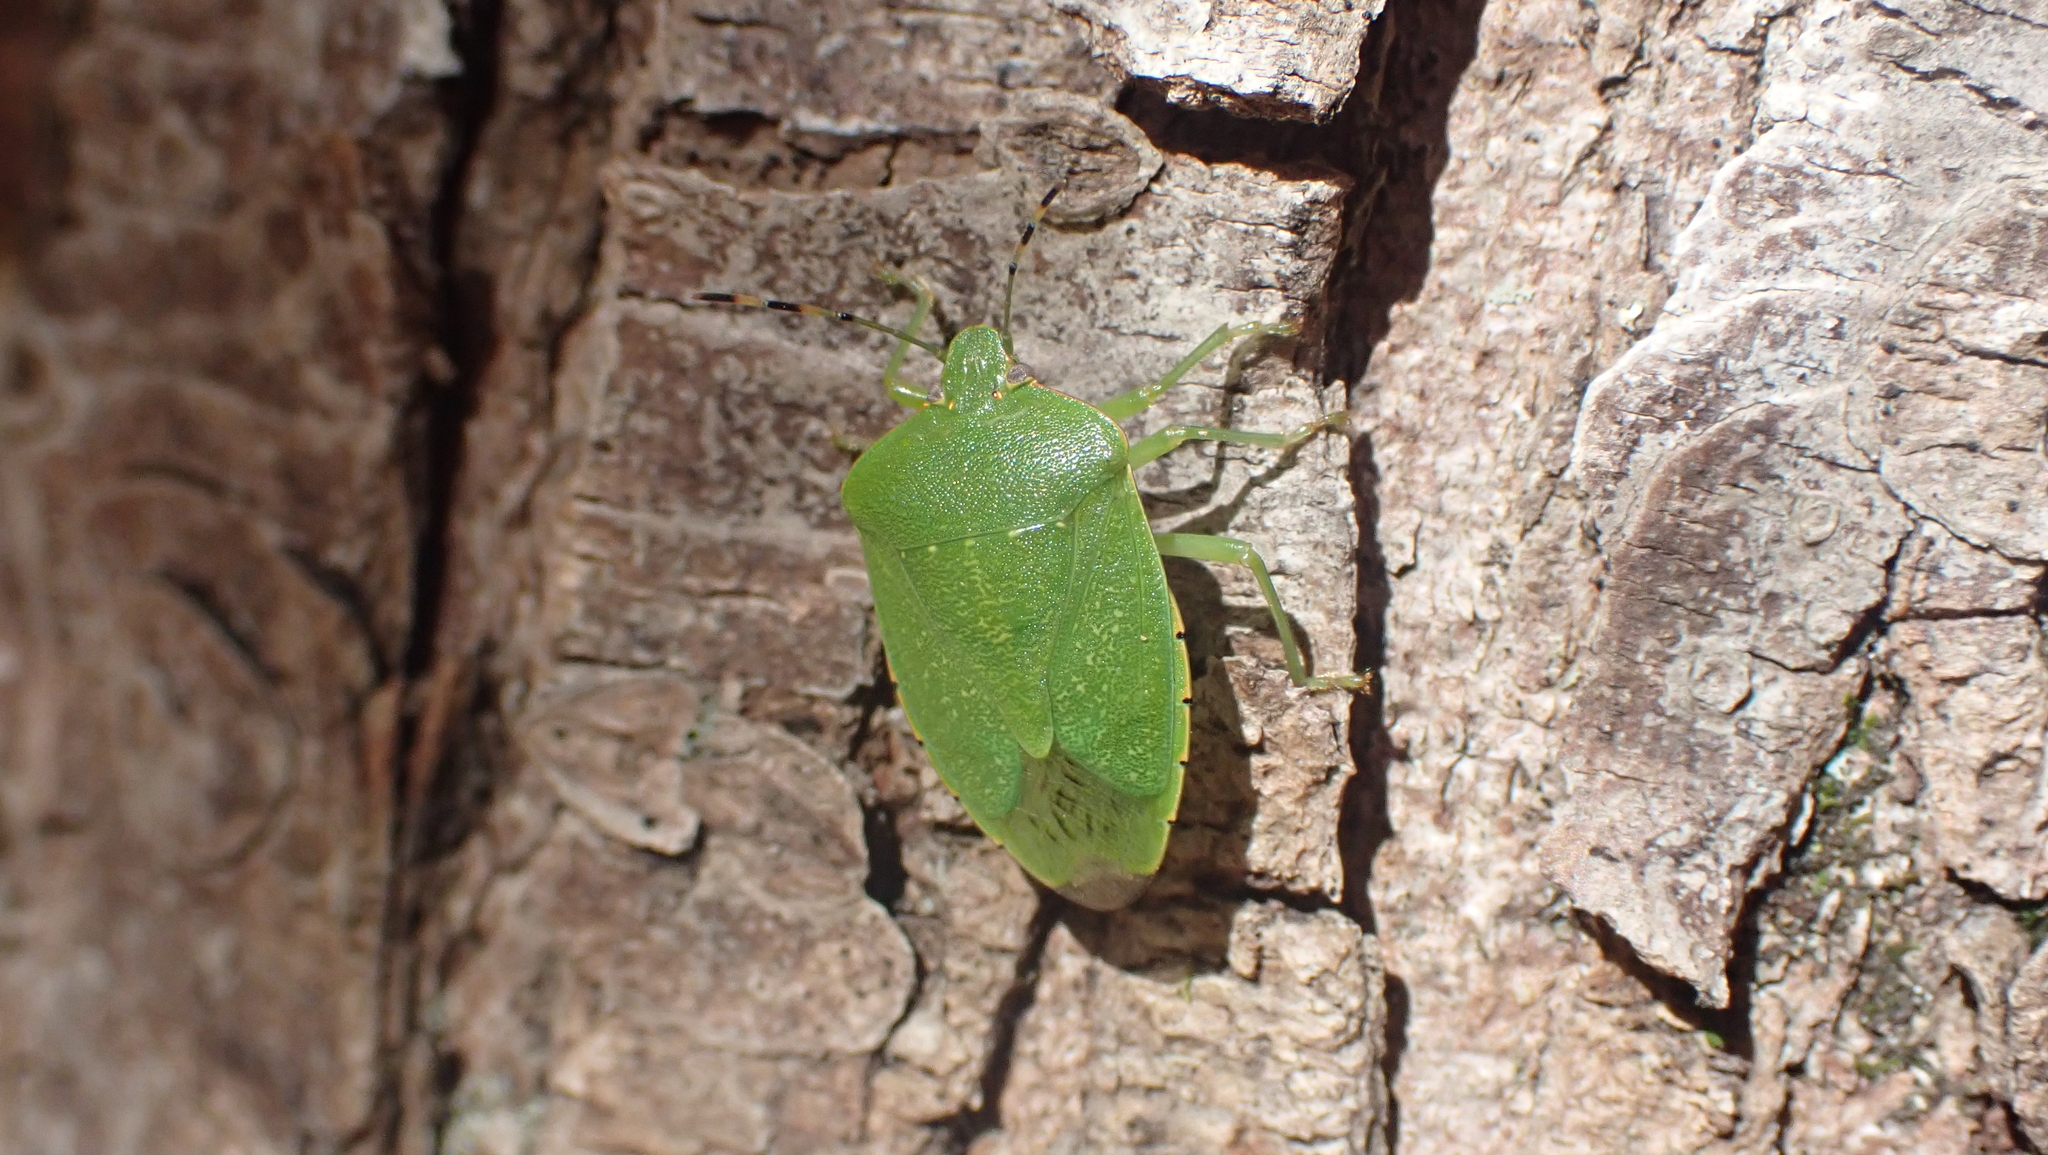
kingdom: Animalia
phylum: Arthropoda
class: Insecta
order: Hemiptera
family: Pentatomidae
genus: Chinavia
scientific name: Chinavia hilaris
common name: Green stink bug
